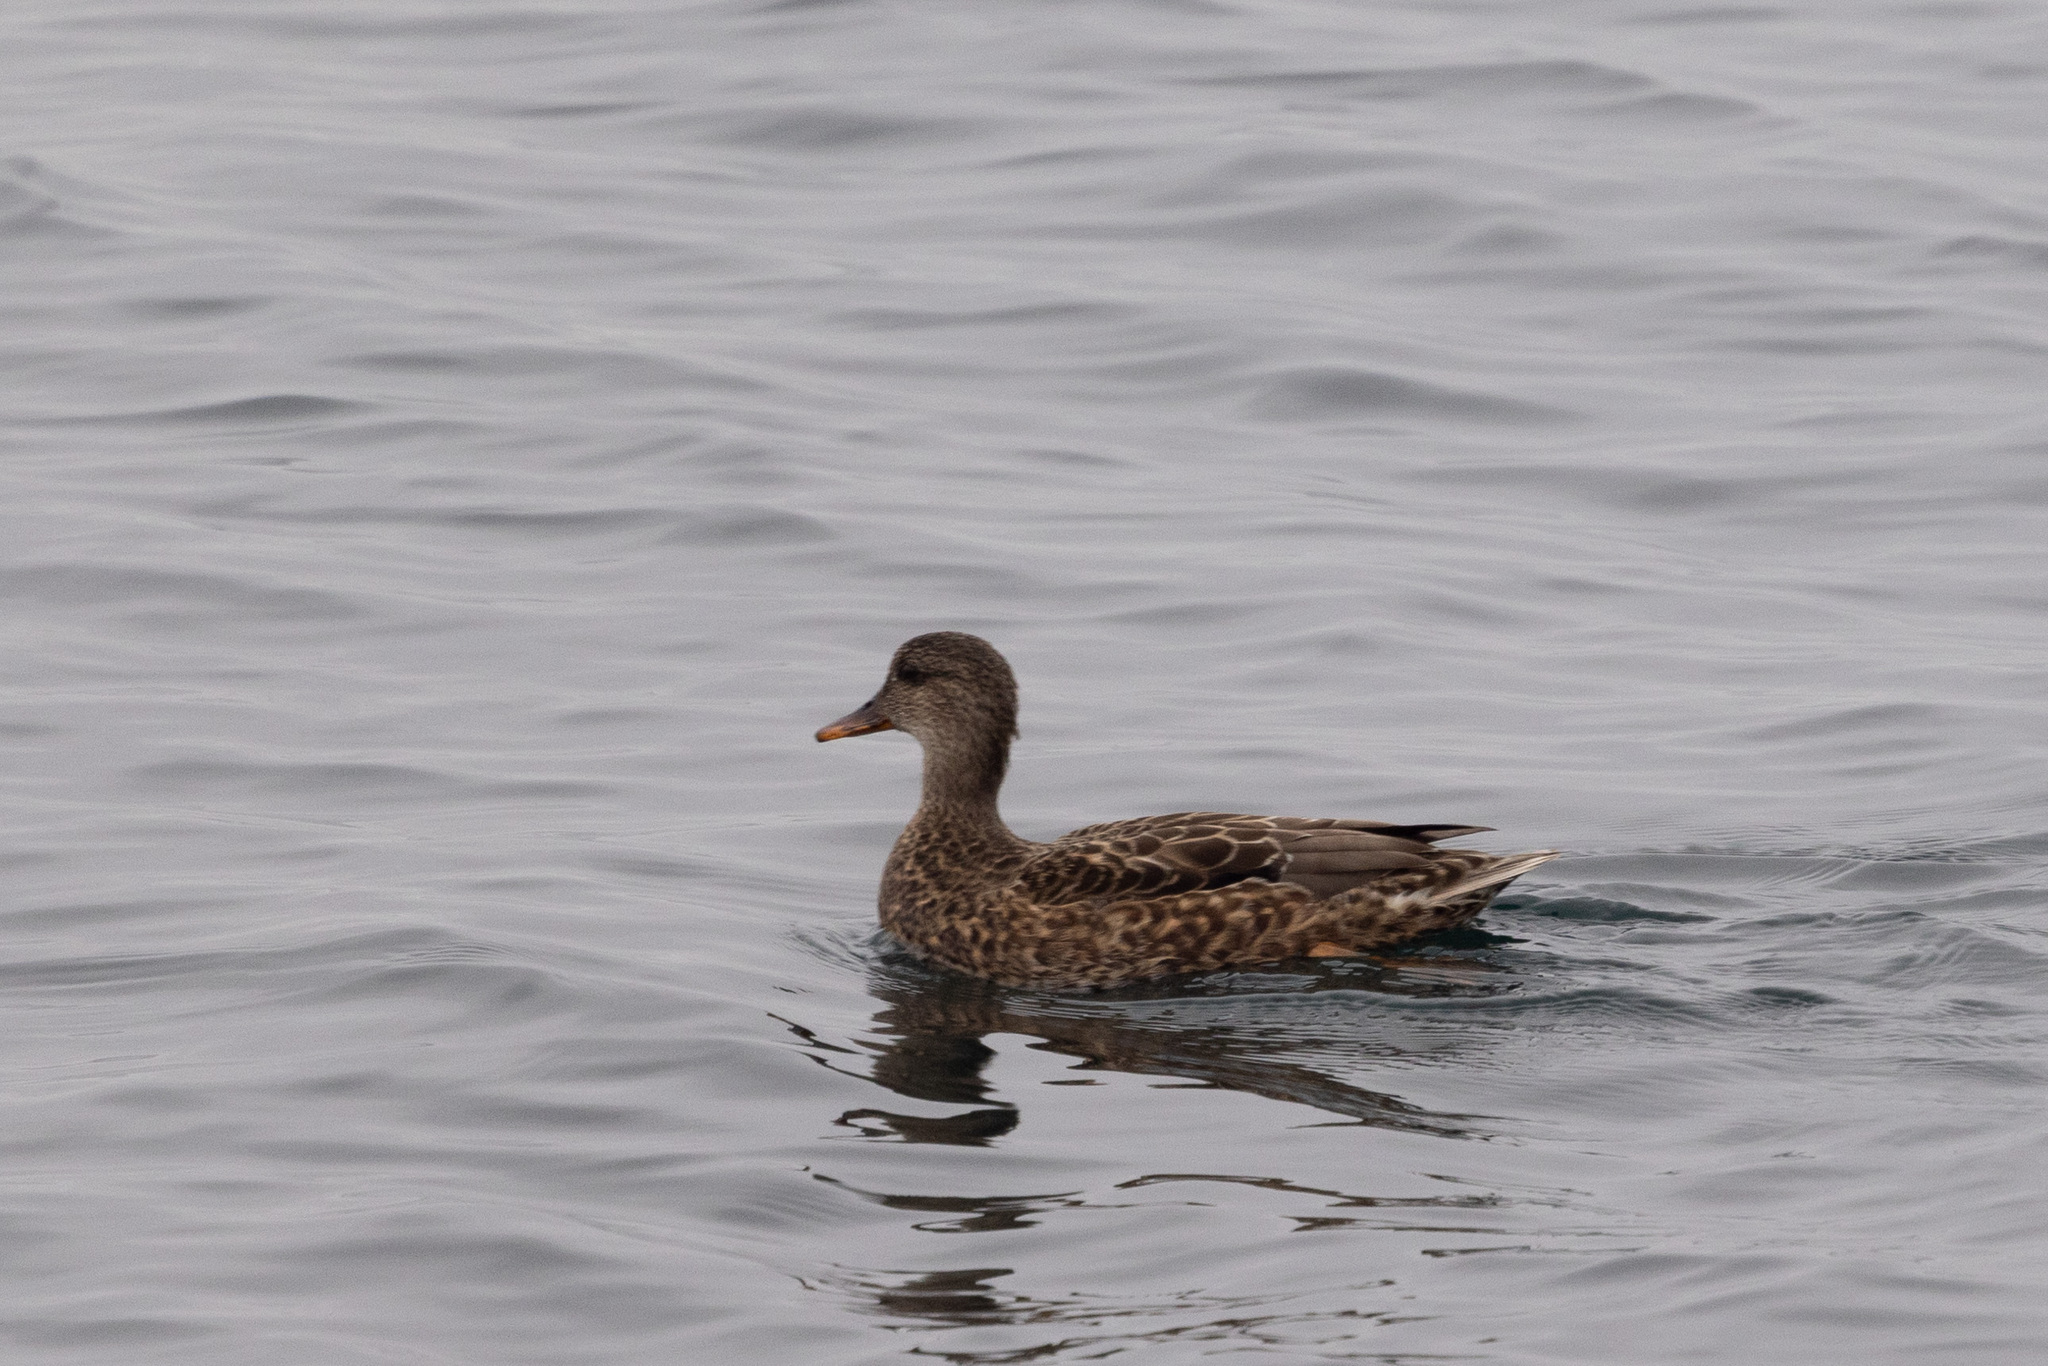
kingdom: Animalia
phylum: Chordata
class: Aves
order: Anseriformes
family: Anatidae
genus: Mareca
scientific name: Mareca strepera
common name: Gadwall
